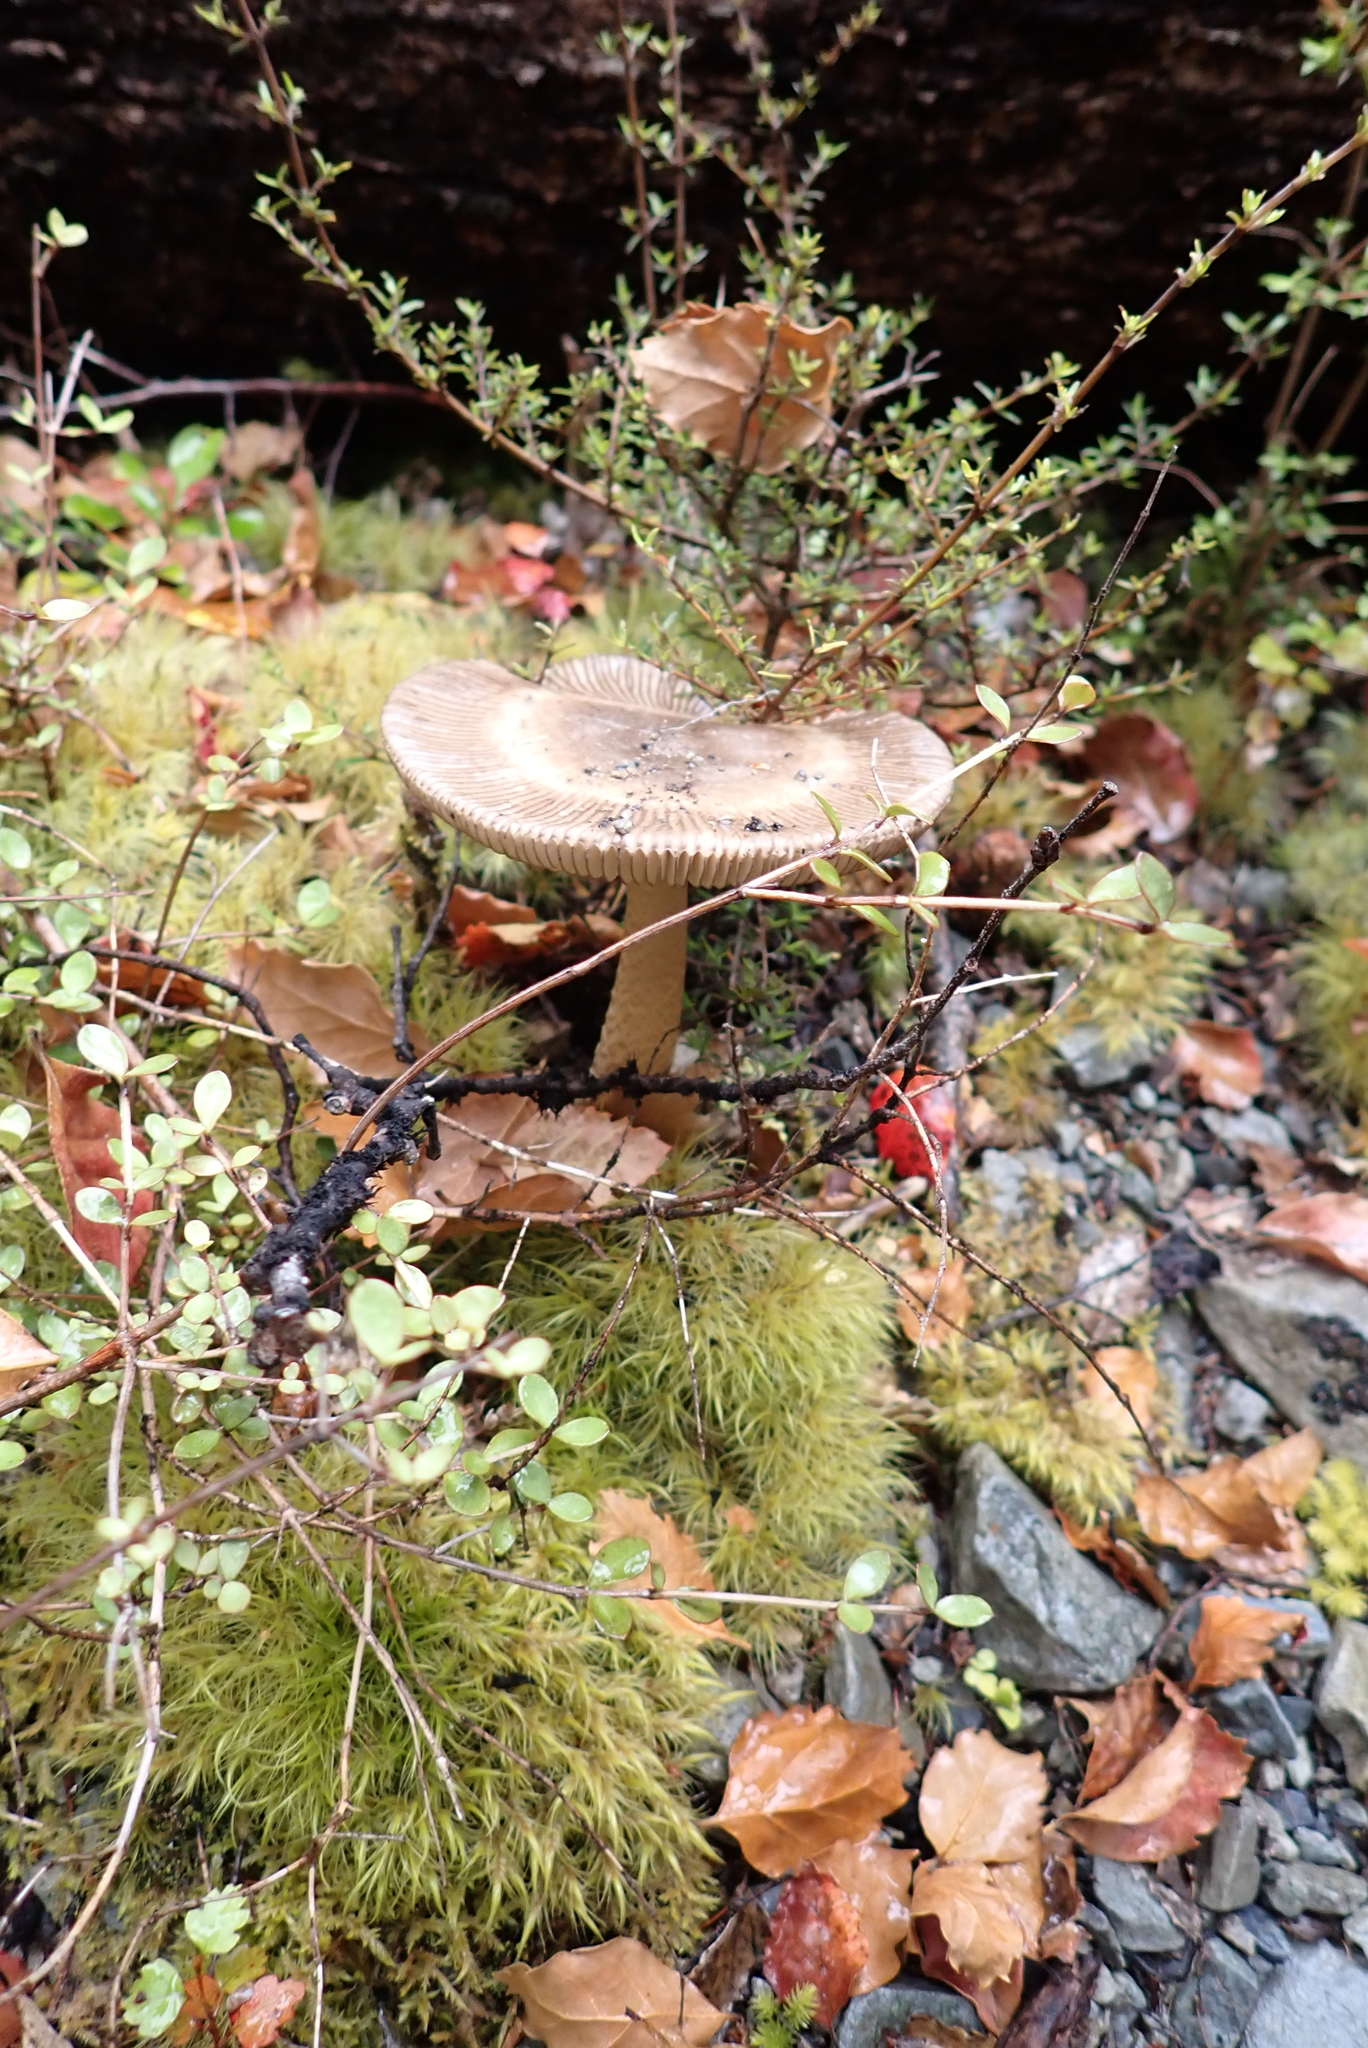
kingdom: Fungi
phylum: Basidiomycota
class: Agaricomycetes
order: Agaricales
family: Amanitaceae
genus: Amanita
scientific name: Amanita pekeoides
